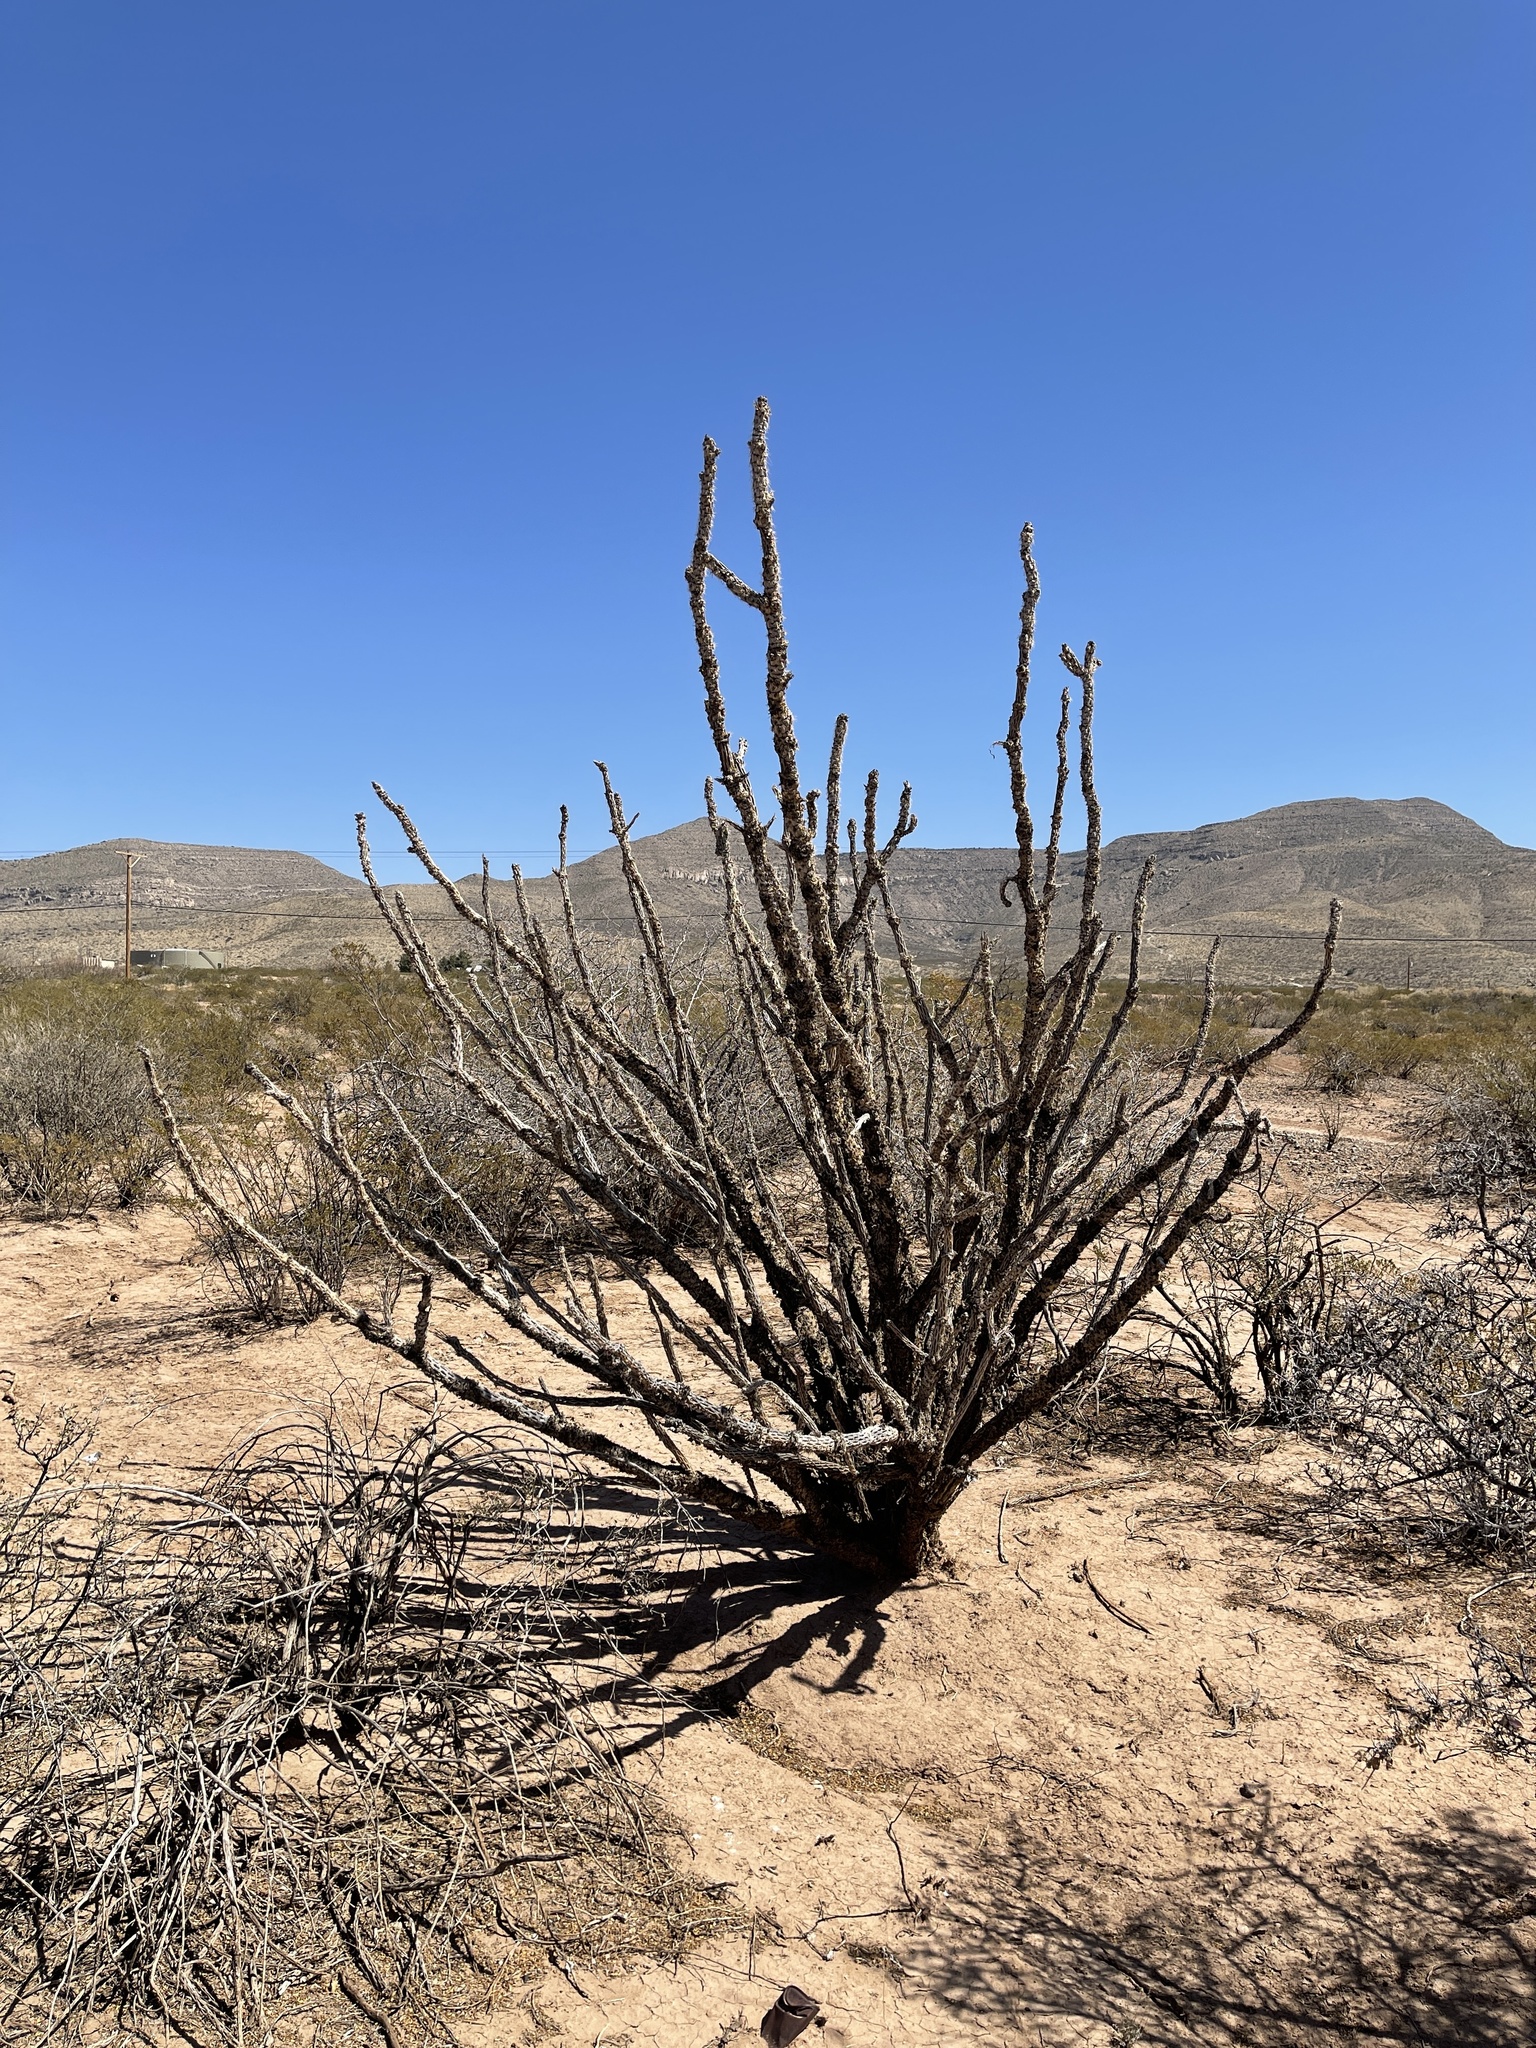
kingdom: Plantae
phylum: Tracheophyta
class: Magnoliopsida
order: Caryophyllales
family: Cactaceae
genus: Cylindropuntia
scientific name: Cylindropuntia imbricata
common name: Candelabrum cactus
